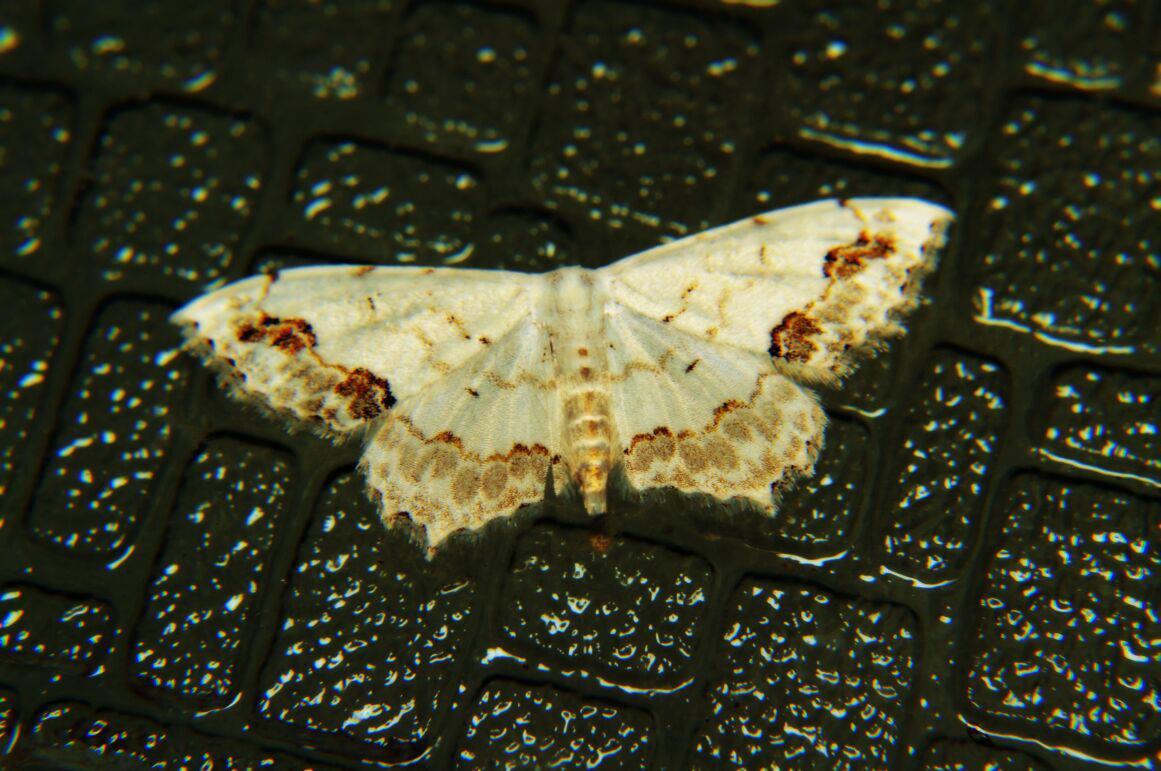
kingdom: Animalia
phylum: Arthropoda
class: Insecta
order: Lepidoptera
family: Geometridae
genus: Scopula
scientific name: Scopula pulchellata
